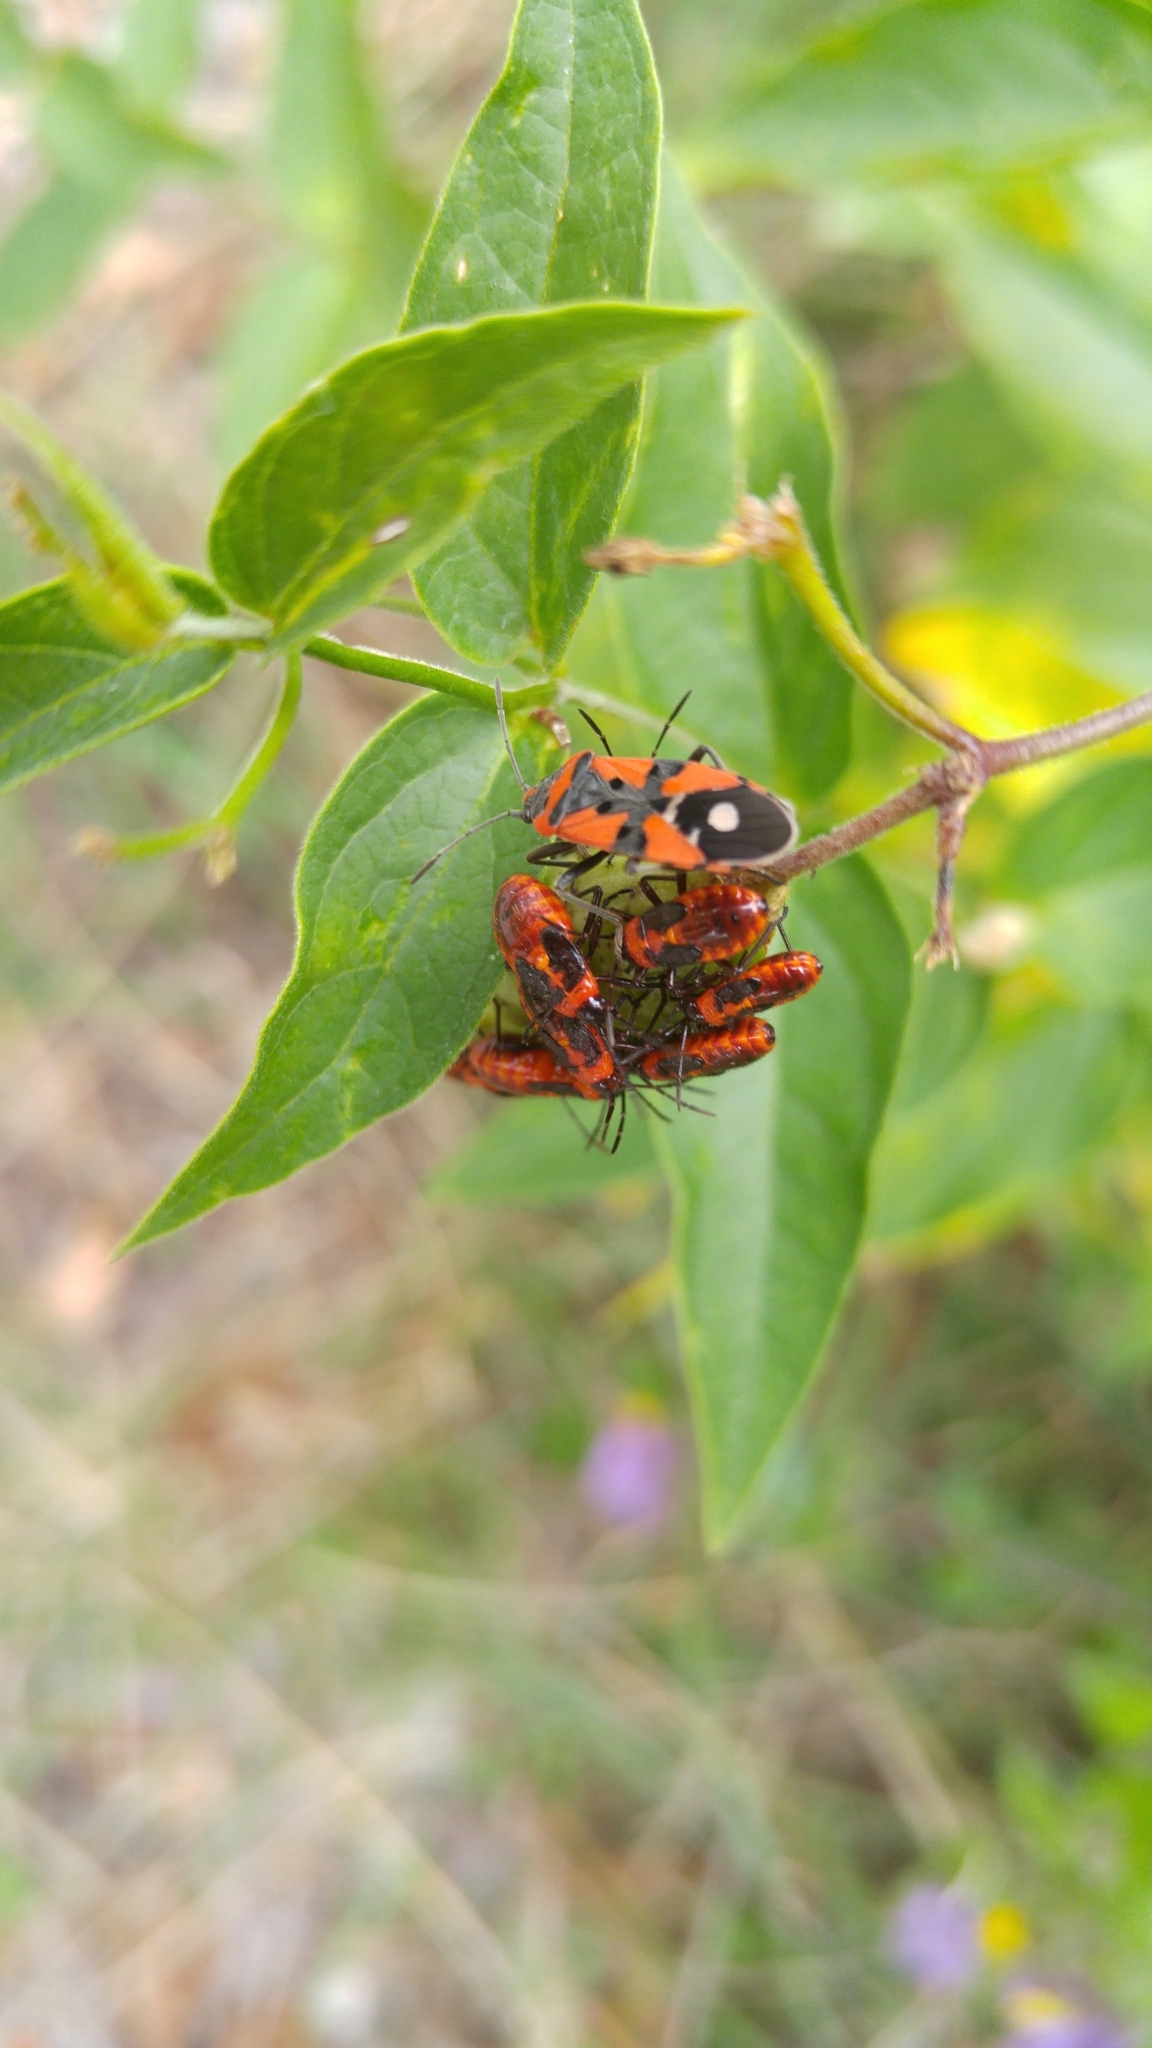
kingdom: Animalia
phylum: Arthropoda
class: Insecta
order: Hemiptera
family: Lygaeidae
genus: Lygaeus
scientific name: Lygaeus equestris
